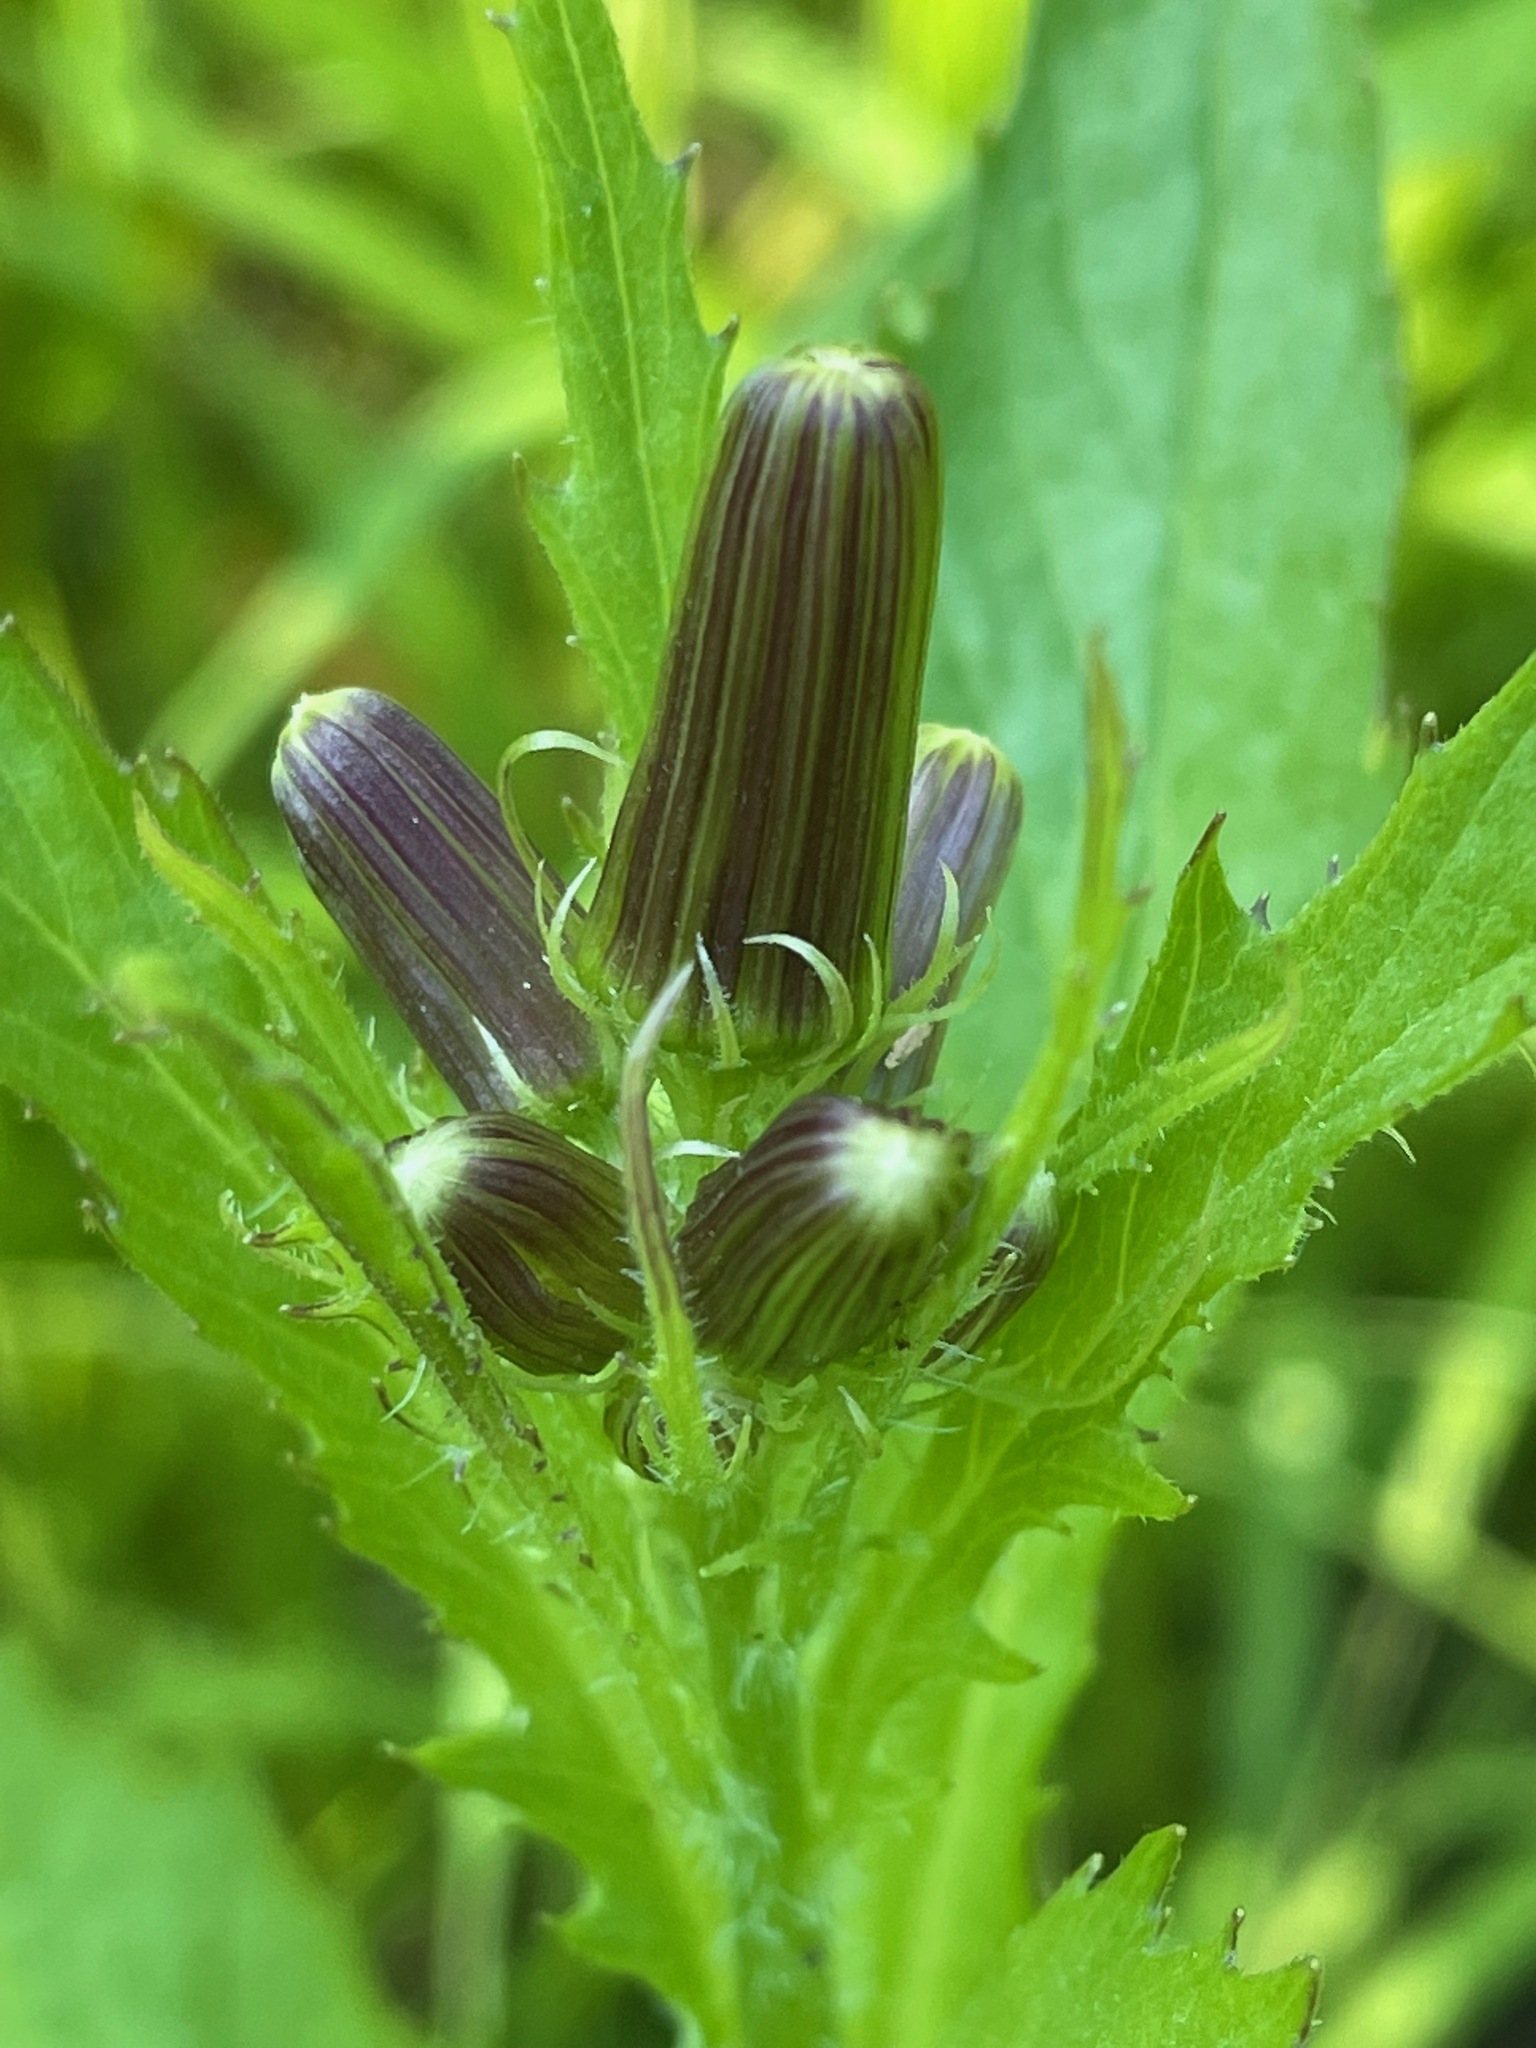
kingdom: Plantae
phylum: Tracheophyta
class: Magnoliopsida
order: Asterales
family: Asteraceae
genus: Erechtites
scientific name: Erechtites hieraciifolius
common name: American burnweed
